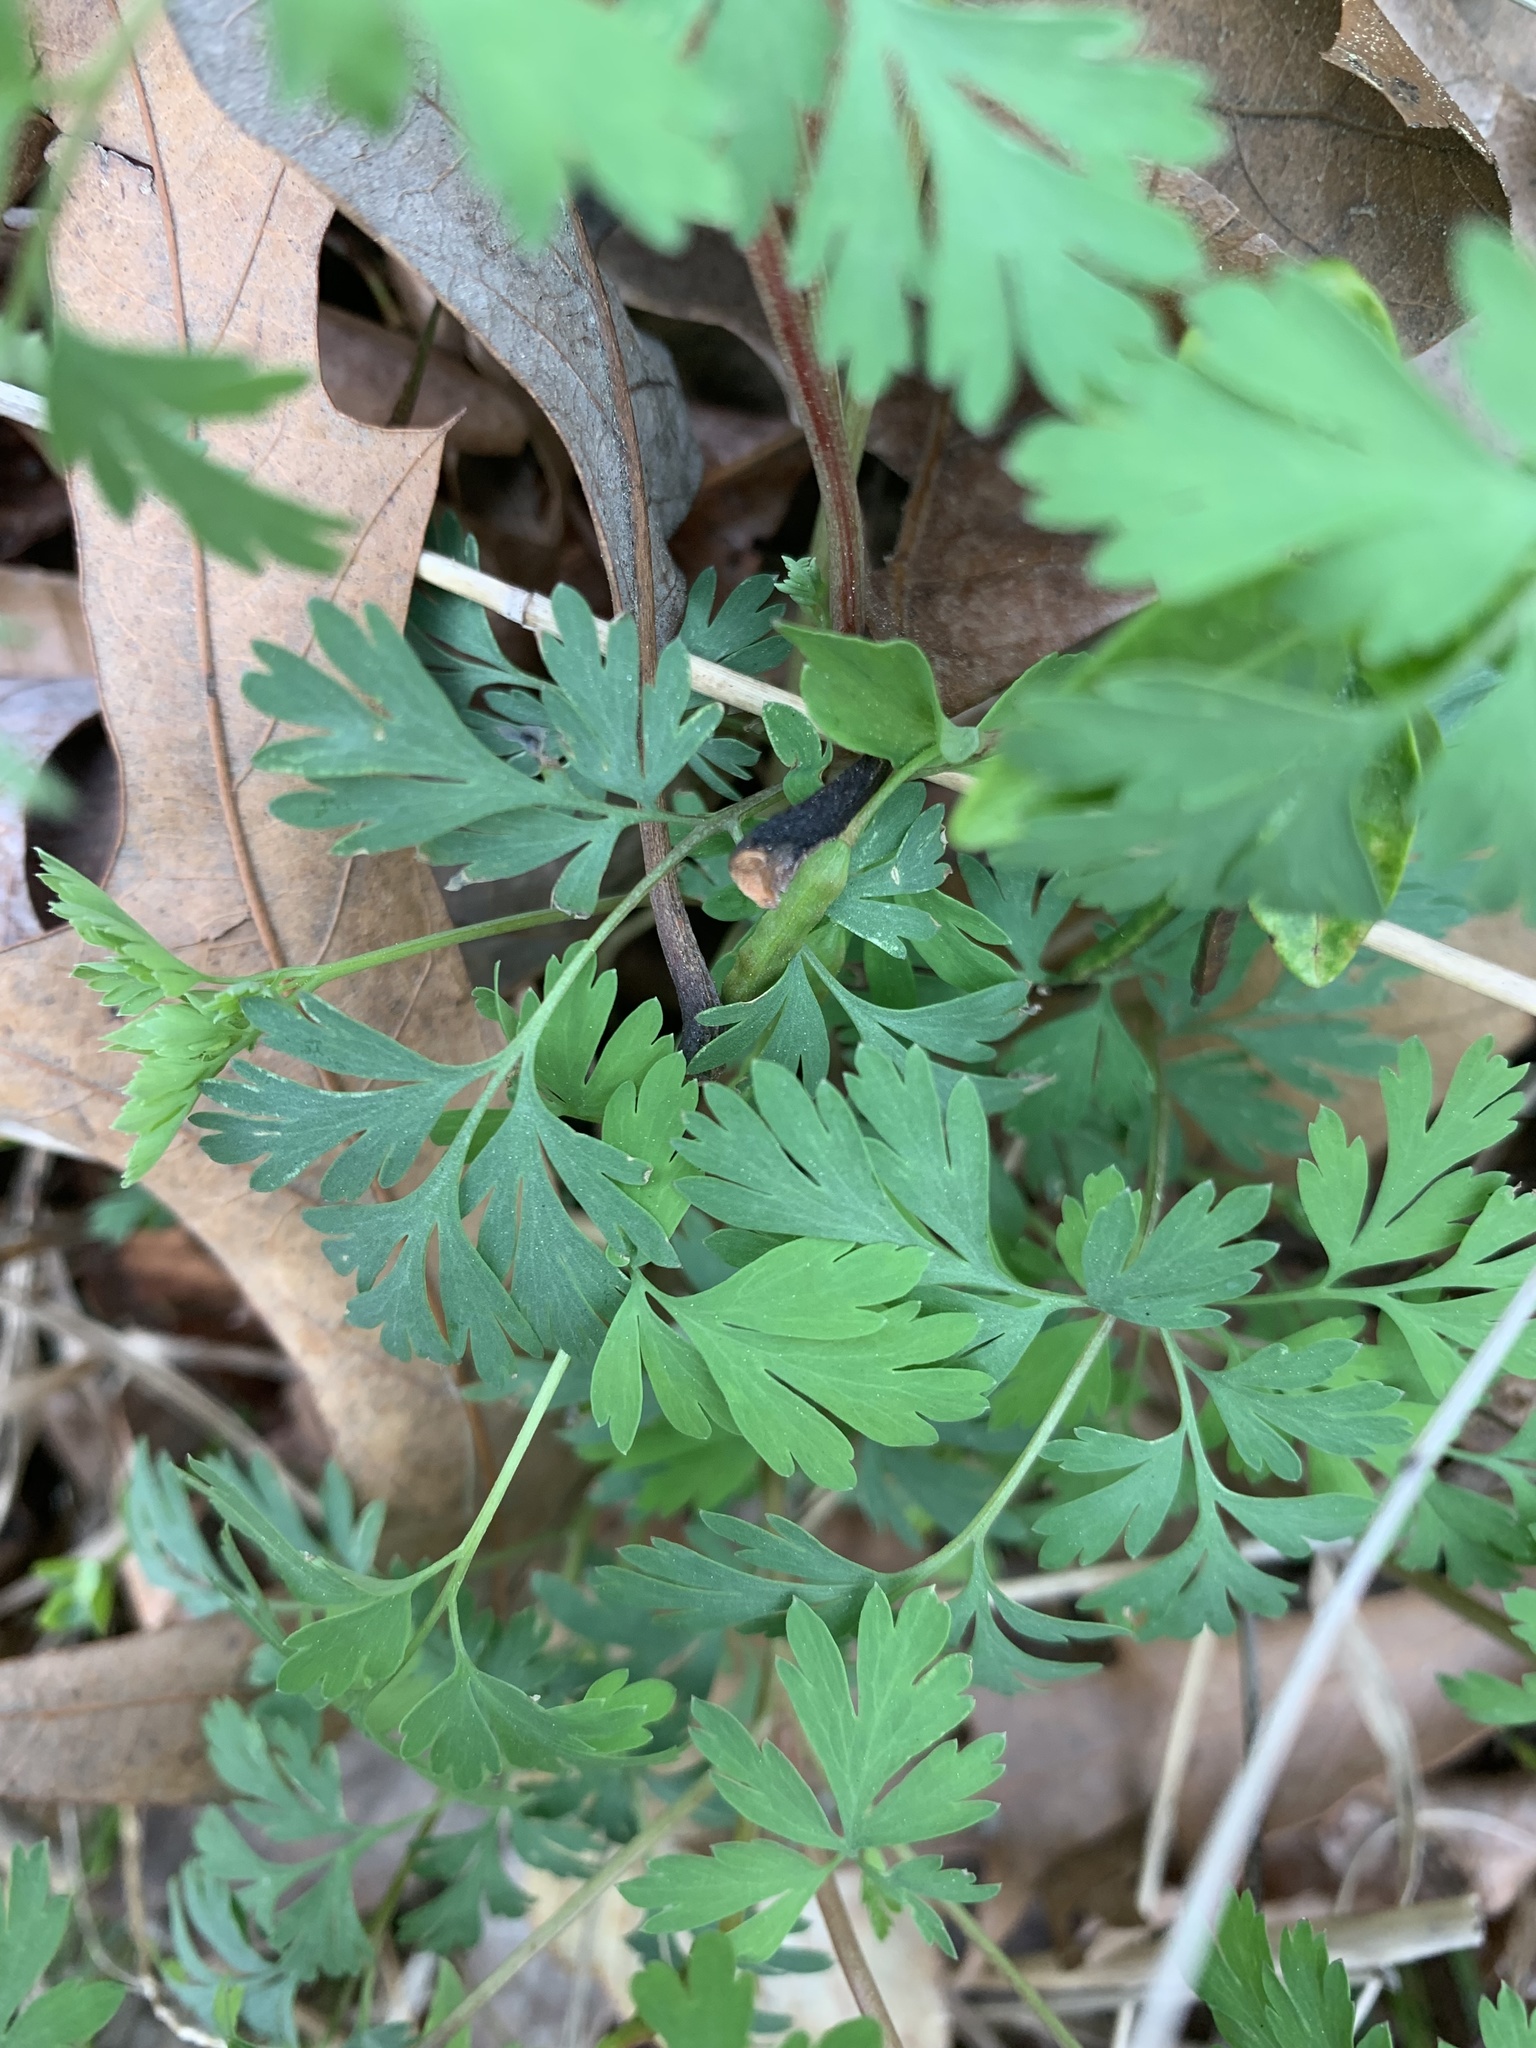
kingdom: Plantae
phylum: Tracheophyta
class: Magnoliopsida
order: Ranunculales
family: Papaveraceae
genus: Corydalis
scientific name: Corydalis flavula
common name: Yellow corydalis
